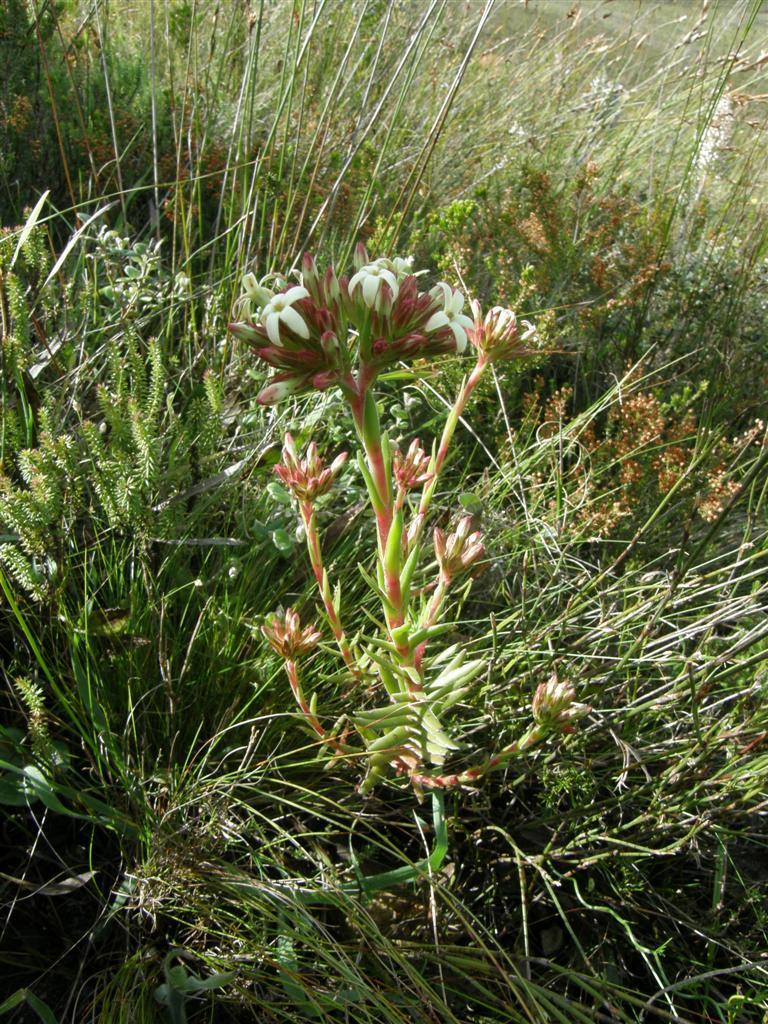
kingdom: Plantae
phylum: Tracheophyta
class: Magnoliopsida
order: Saxifragales
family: Crassulaceae
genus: Crassula
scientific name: Crassula fascicularis
